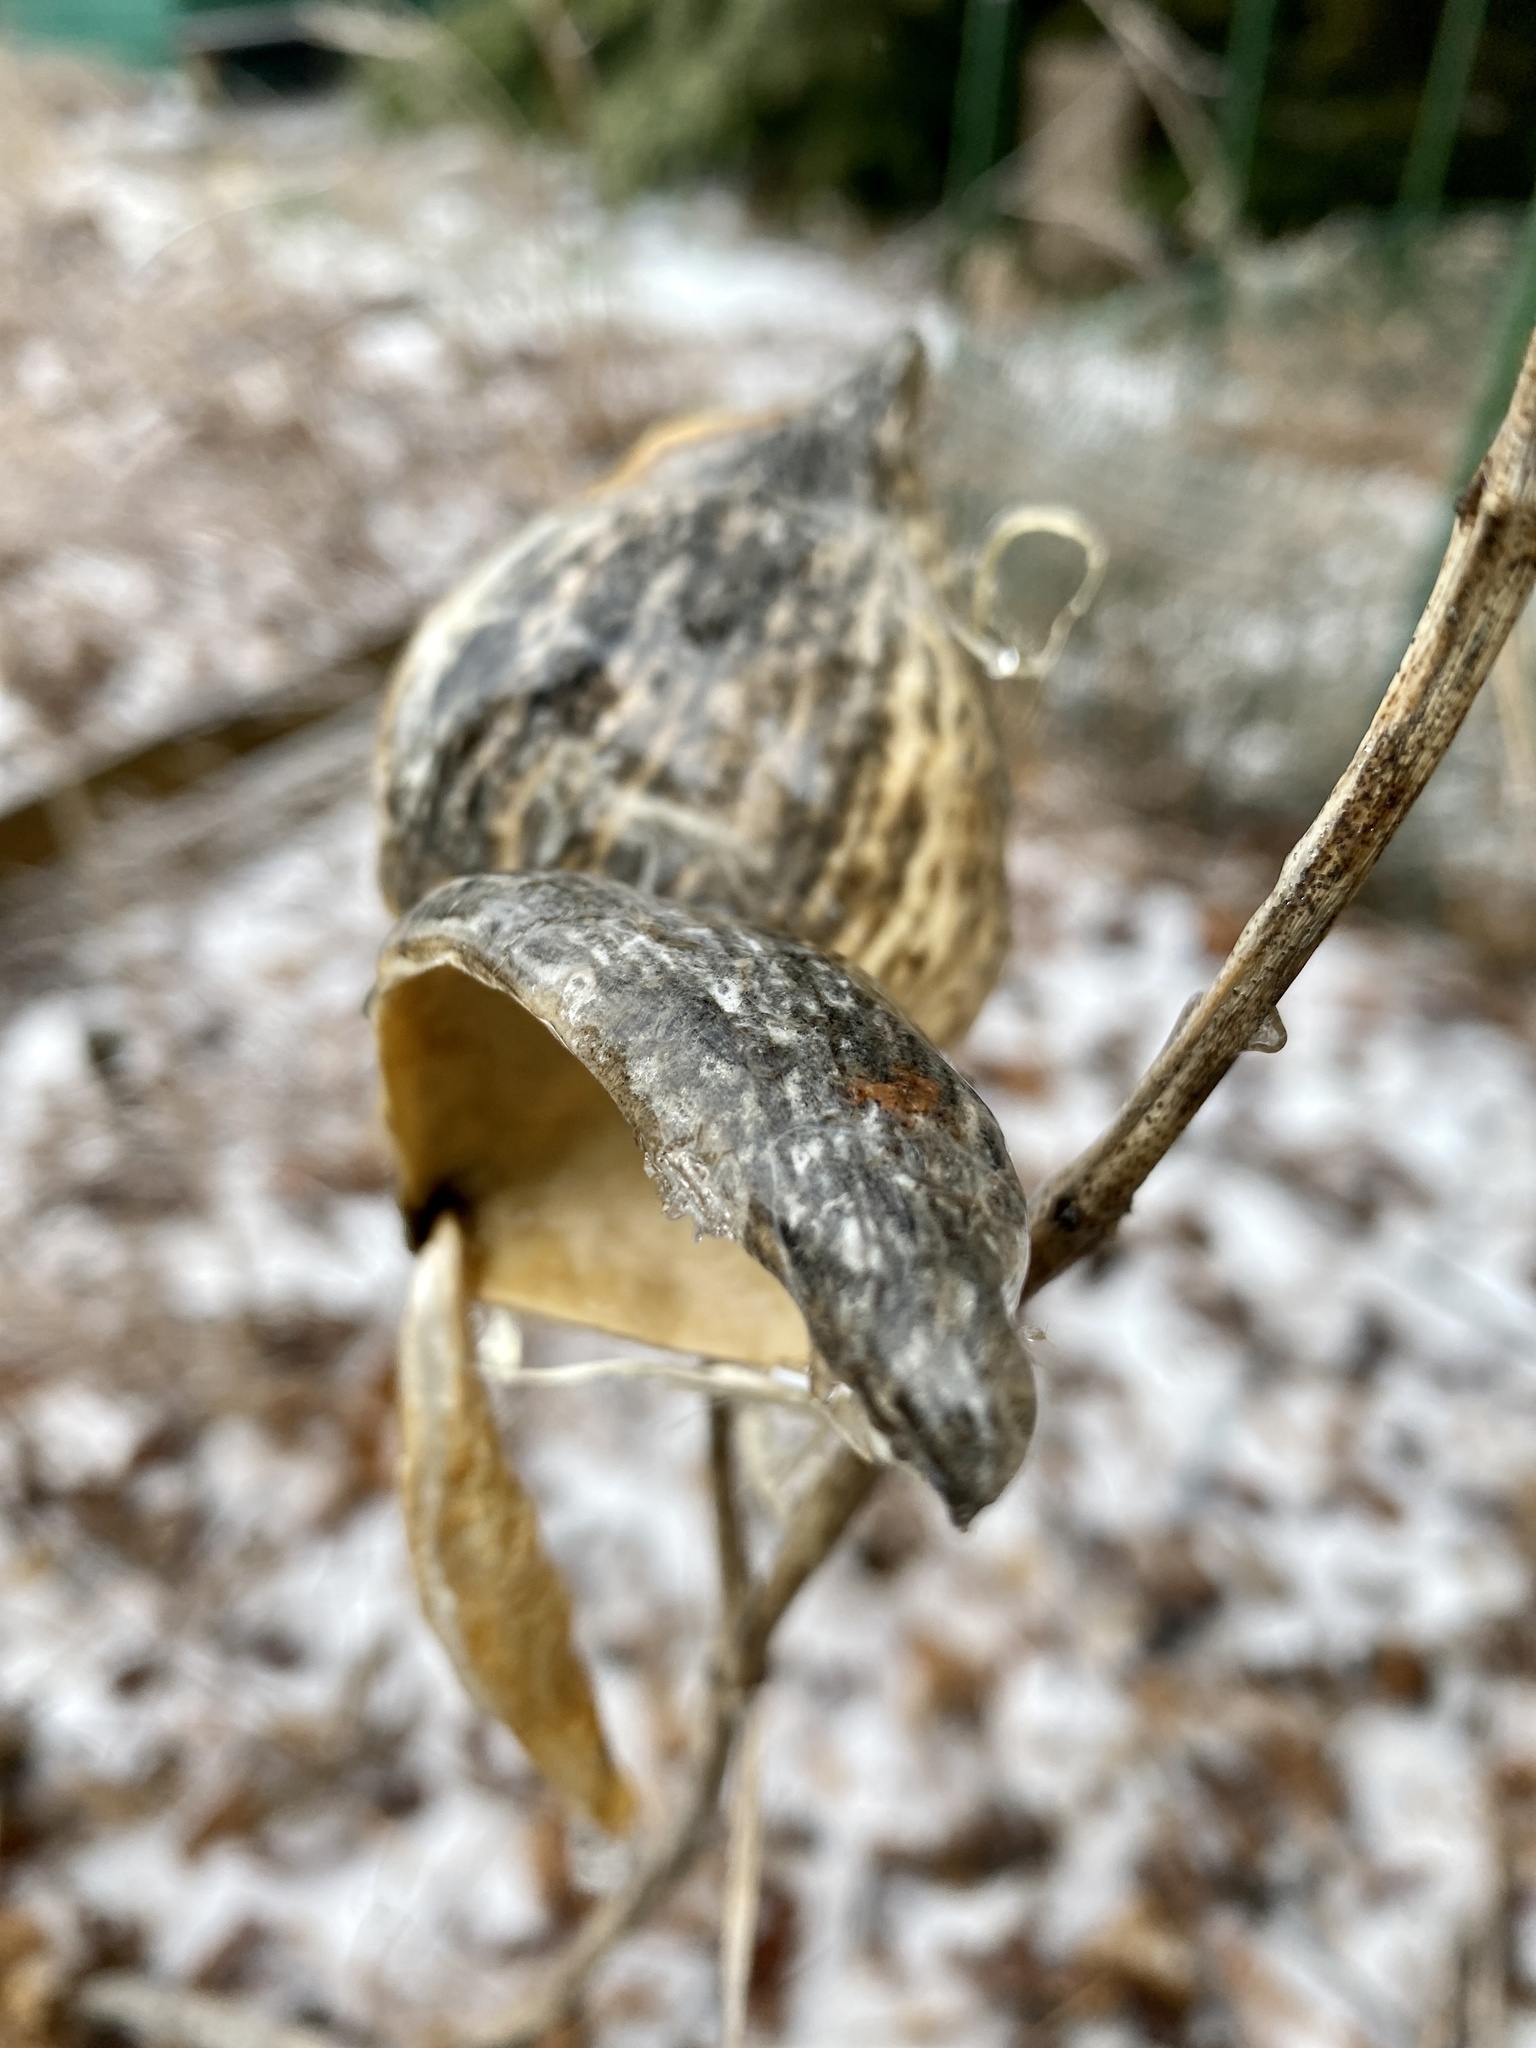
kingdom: Plantae
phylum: Tracheophyta
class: Magnoliopsida
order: Gentianales
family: Apocynaceae
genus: Asclepias
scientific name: Asclepias syriaca
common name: Common milkweed
